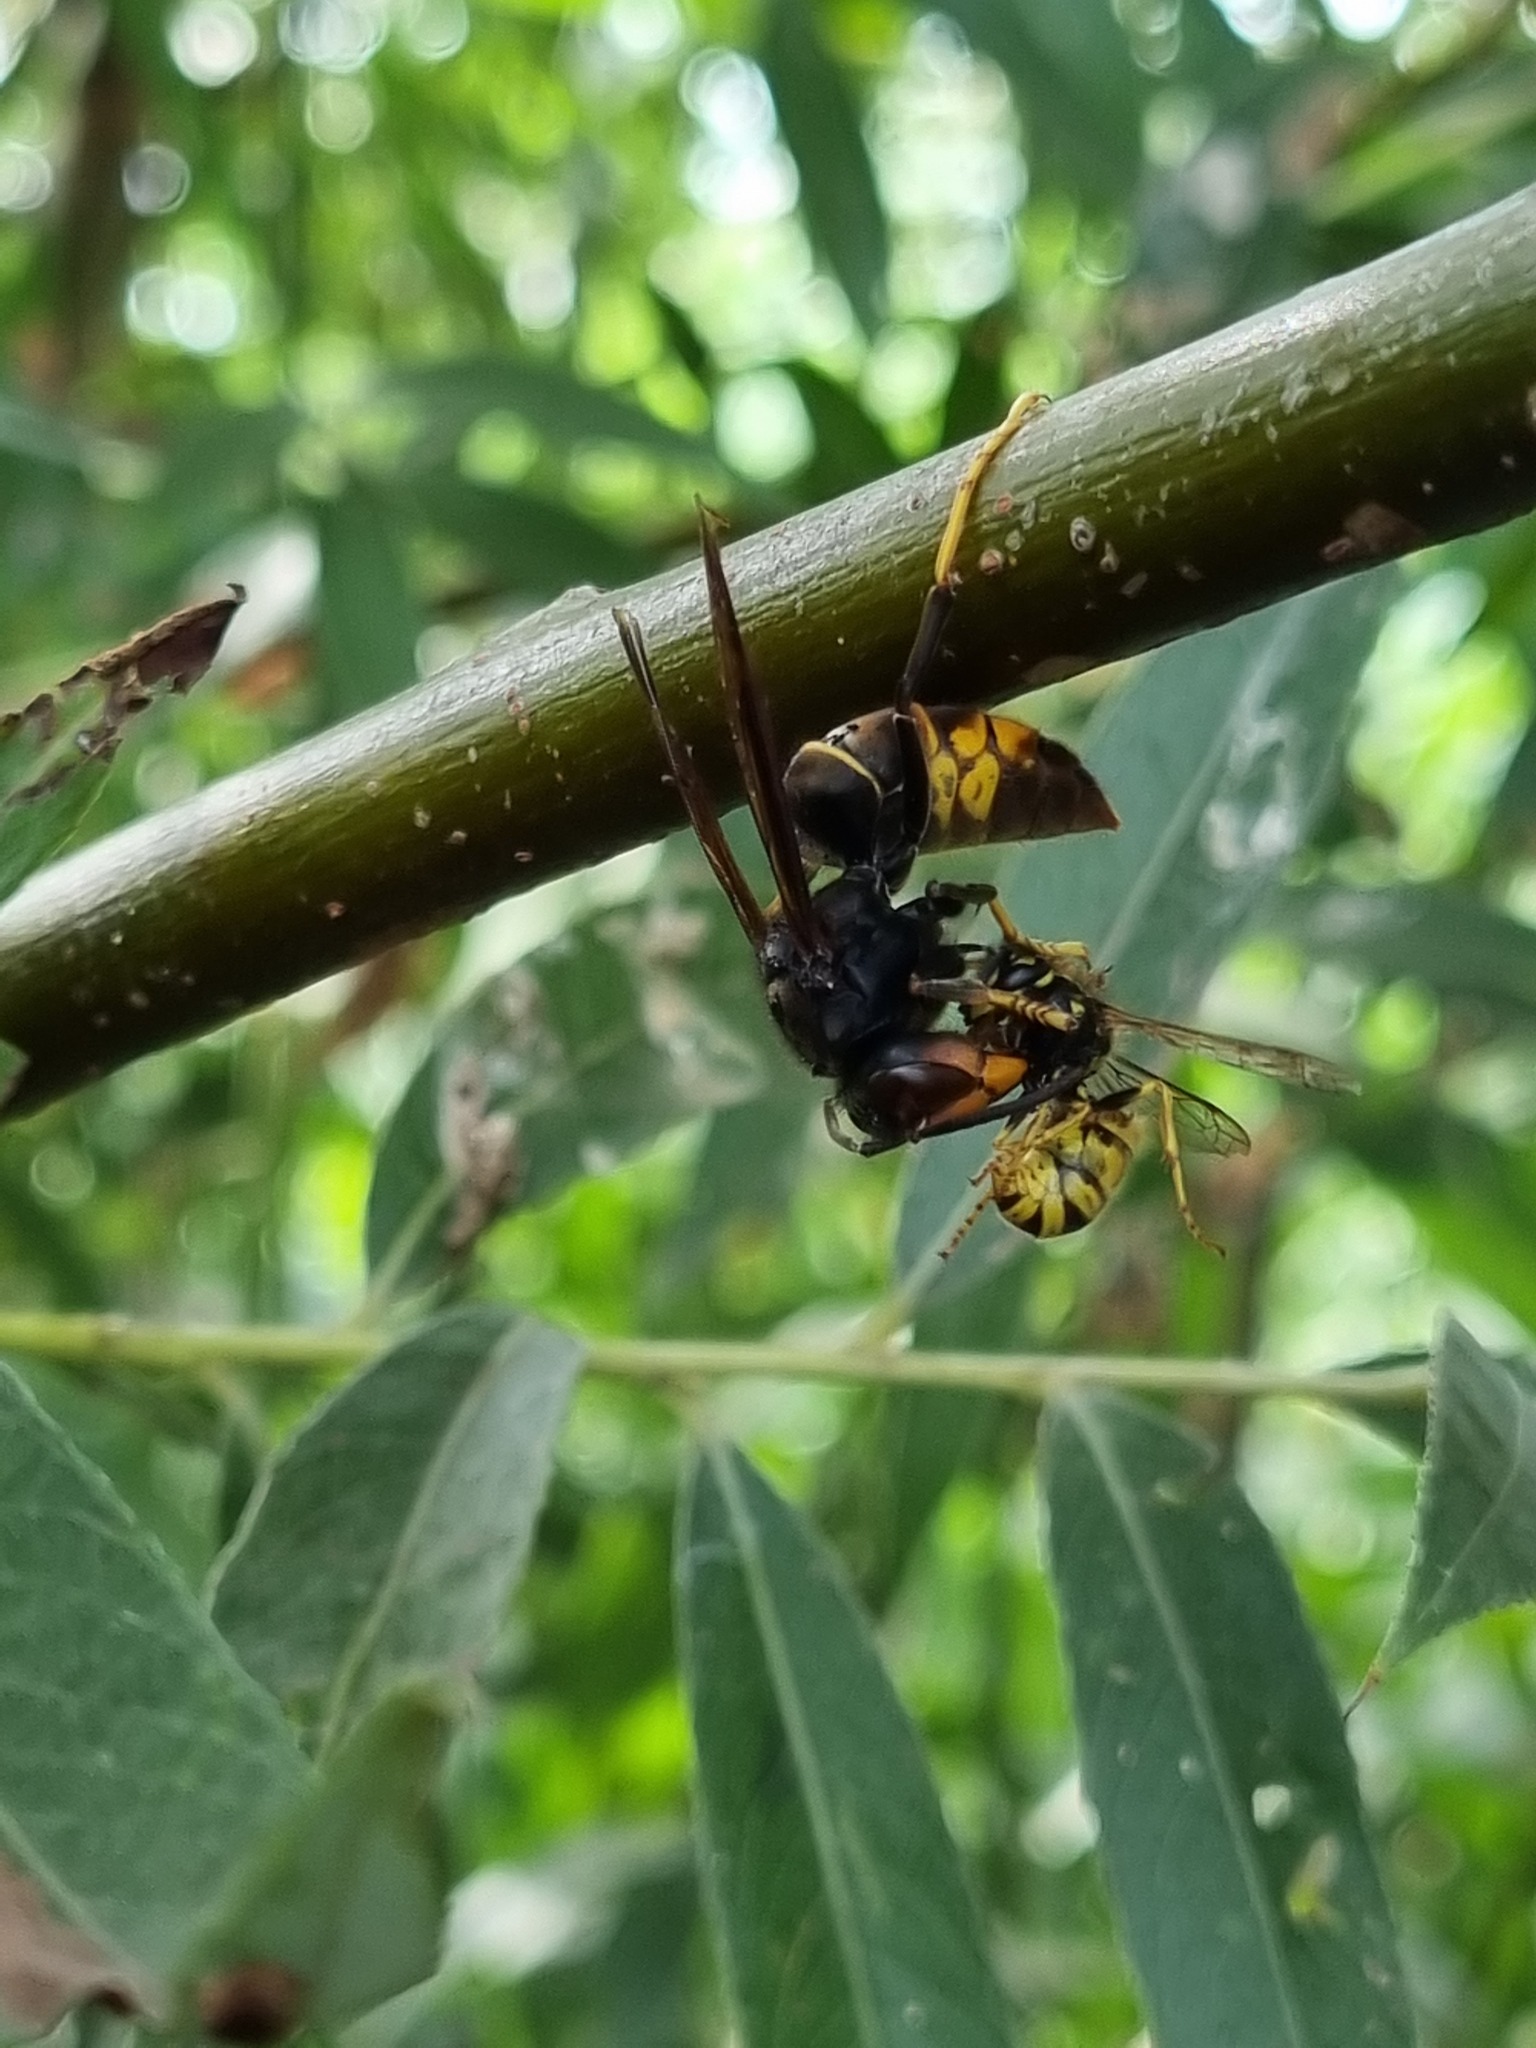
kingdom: Animalia
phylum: Arthropoda
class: Insecta
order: Hymenoptera
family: Vespidae
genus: Vespa
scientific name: Vespa velutina
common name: Asian hornet
